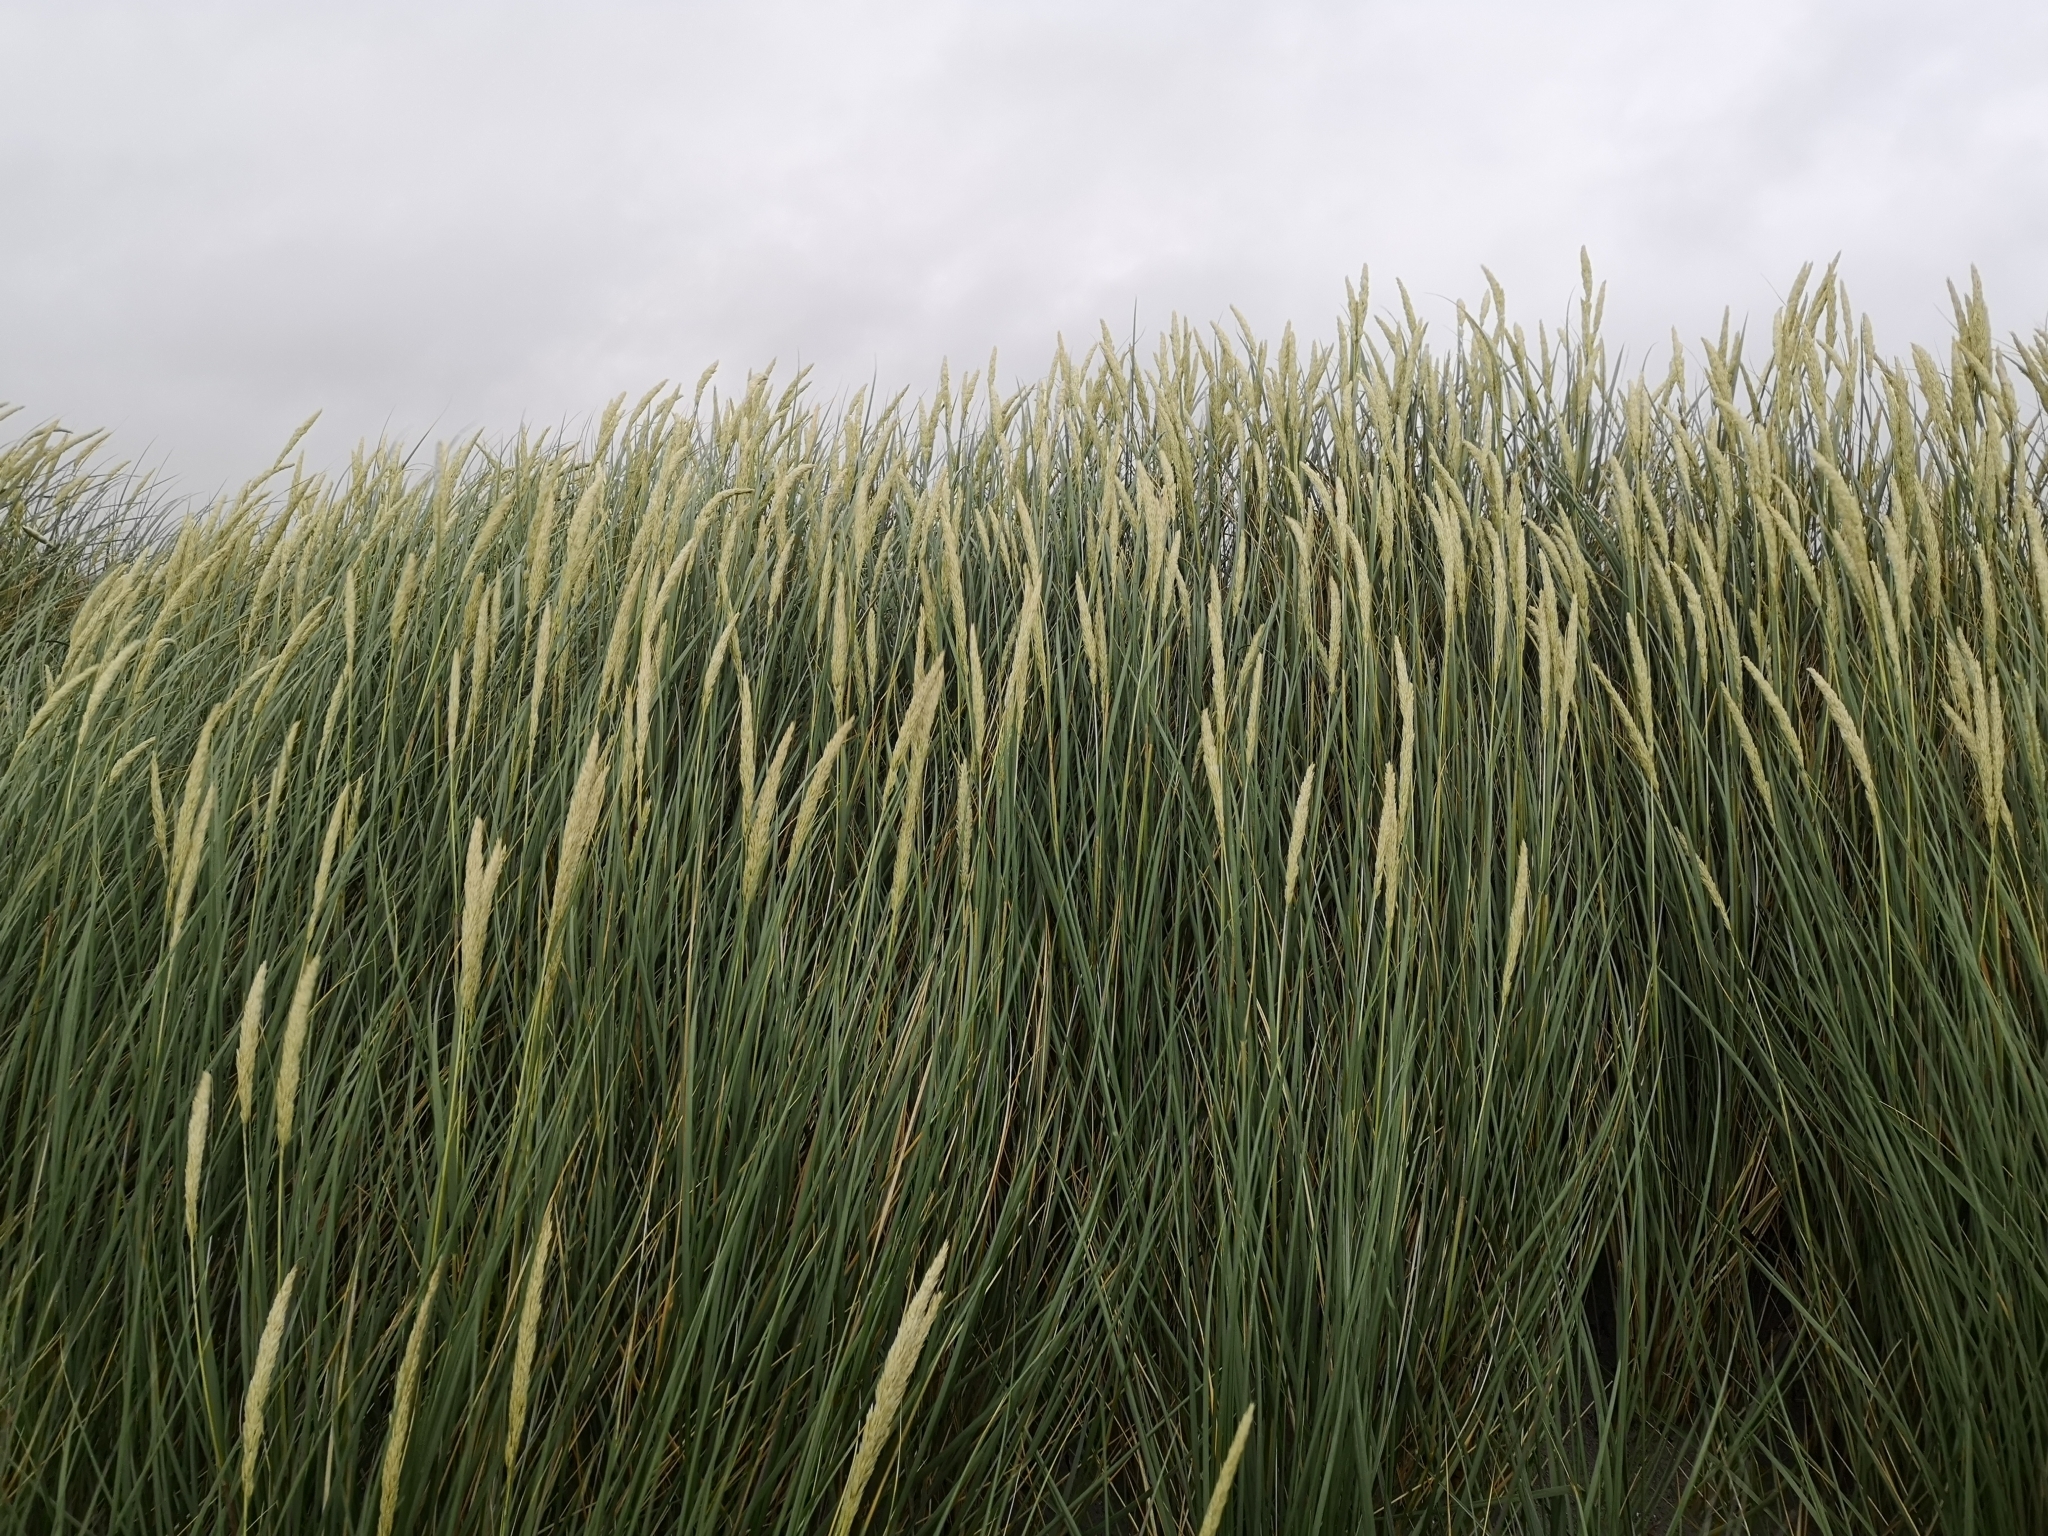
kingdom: Plantae
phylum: Tracheophyta
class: Liliopsida
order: Poales
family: Poaceae
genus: Calamagrostis
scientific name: Calamagrostis arenaria
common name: European beachgrass
